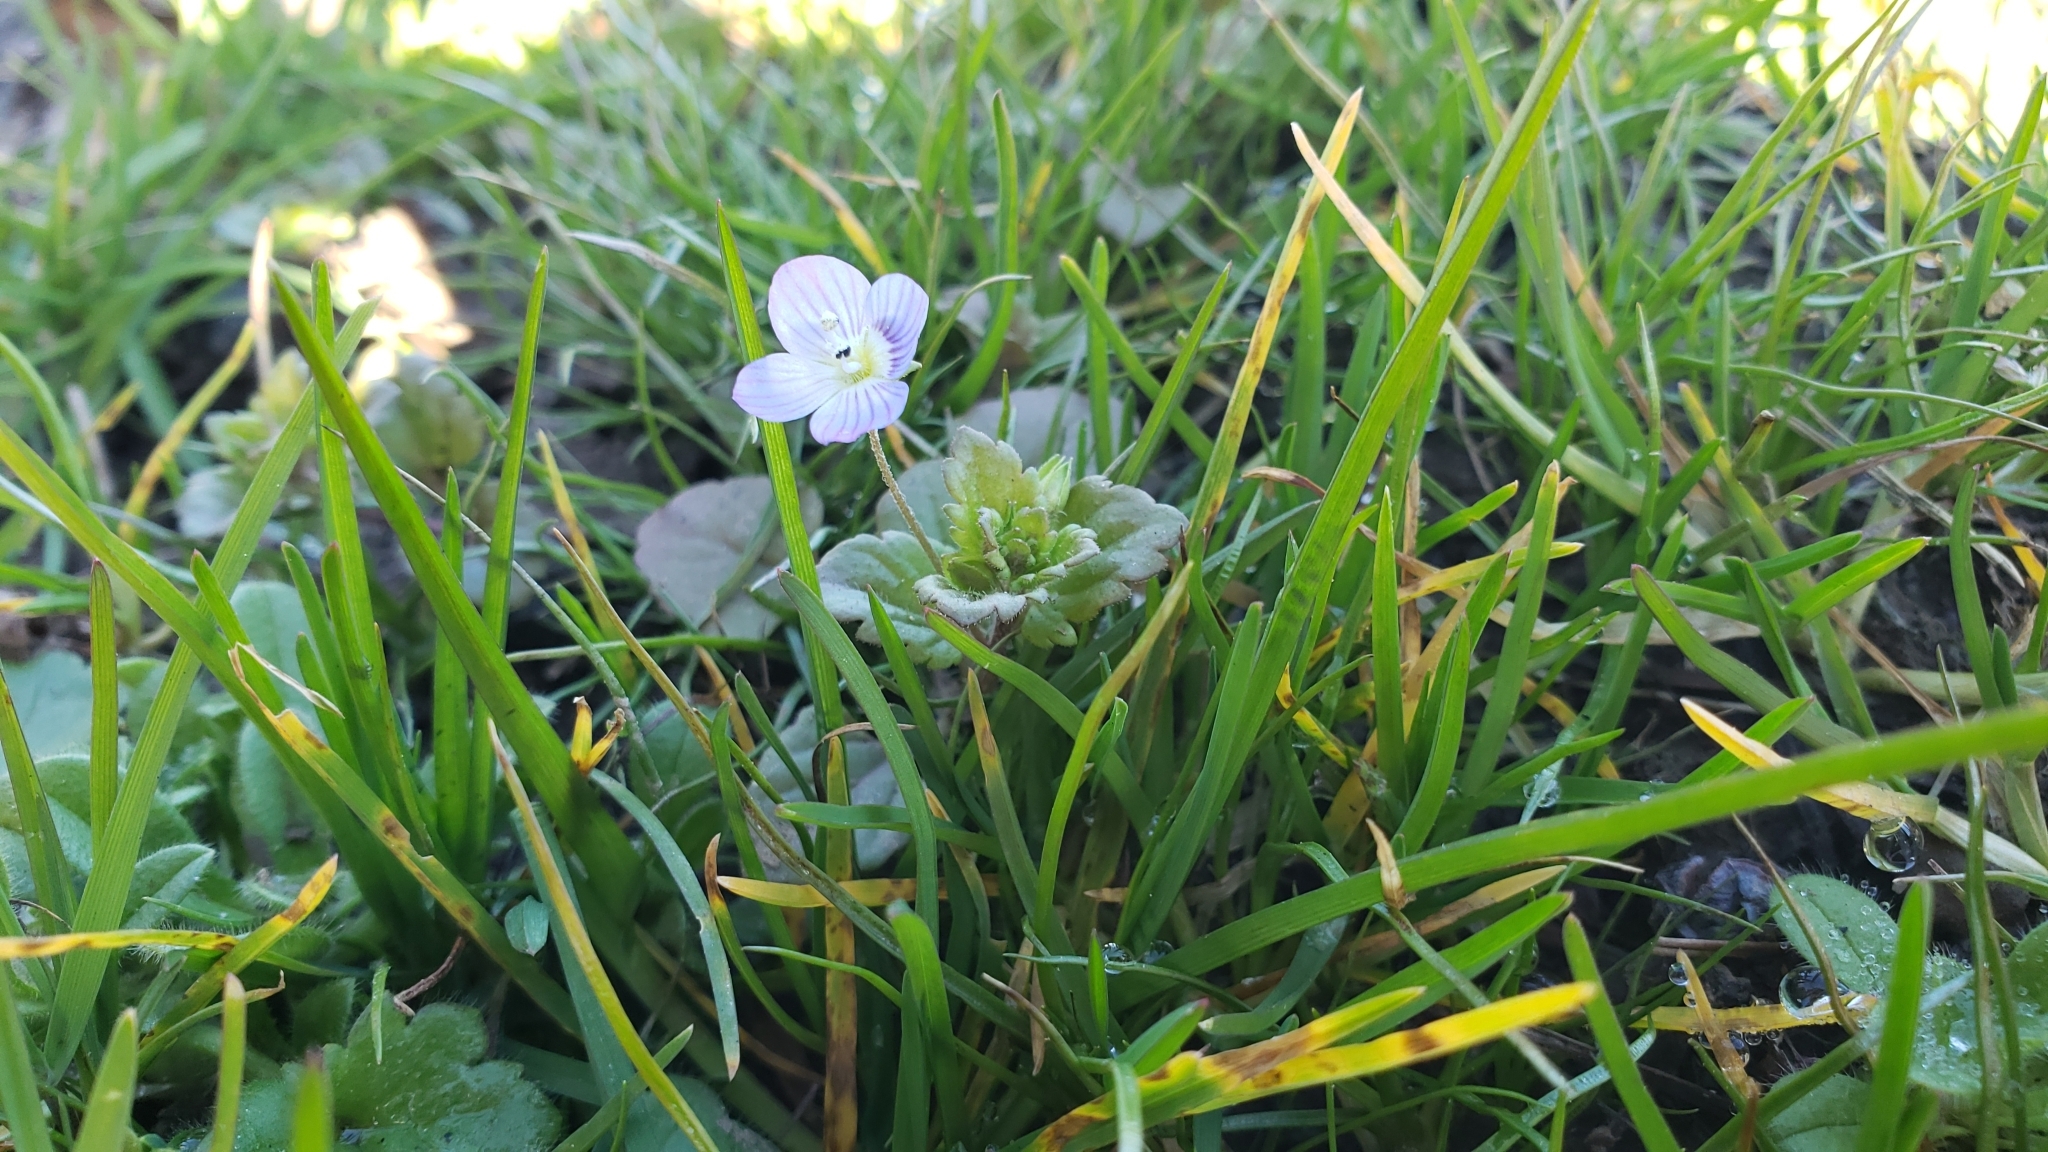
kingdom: Plantae
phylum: Tracheophyta
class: Magnoliopsida
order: Lamiales
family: Plantaginaceae
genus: Veronica
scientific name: Veronica persica
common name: Common field-speedwell
